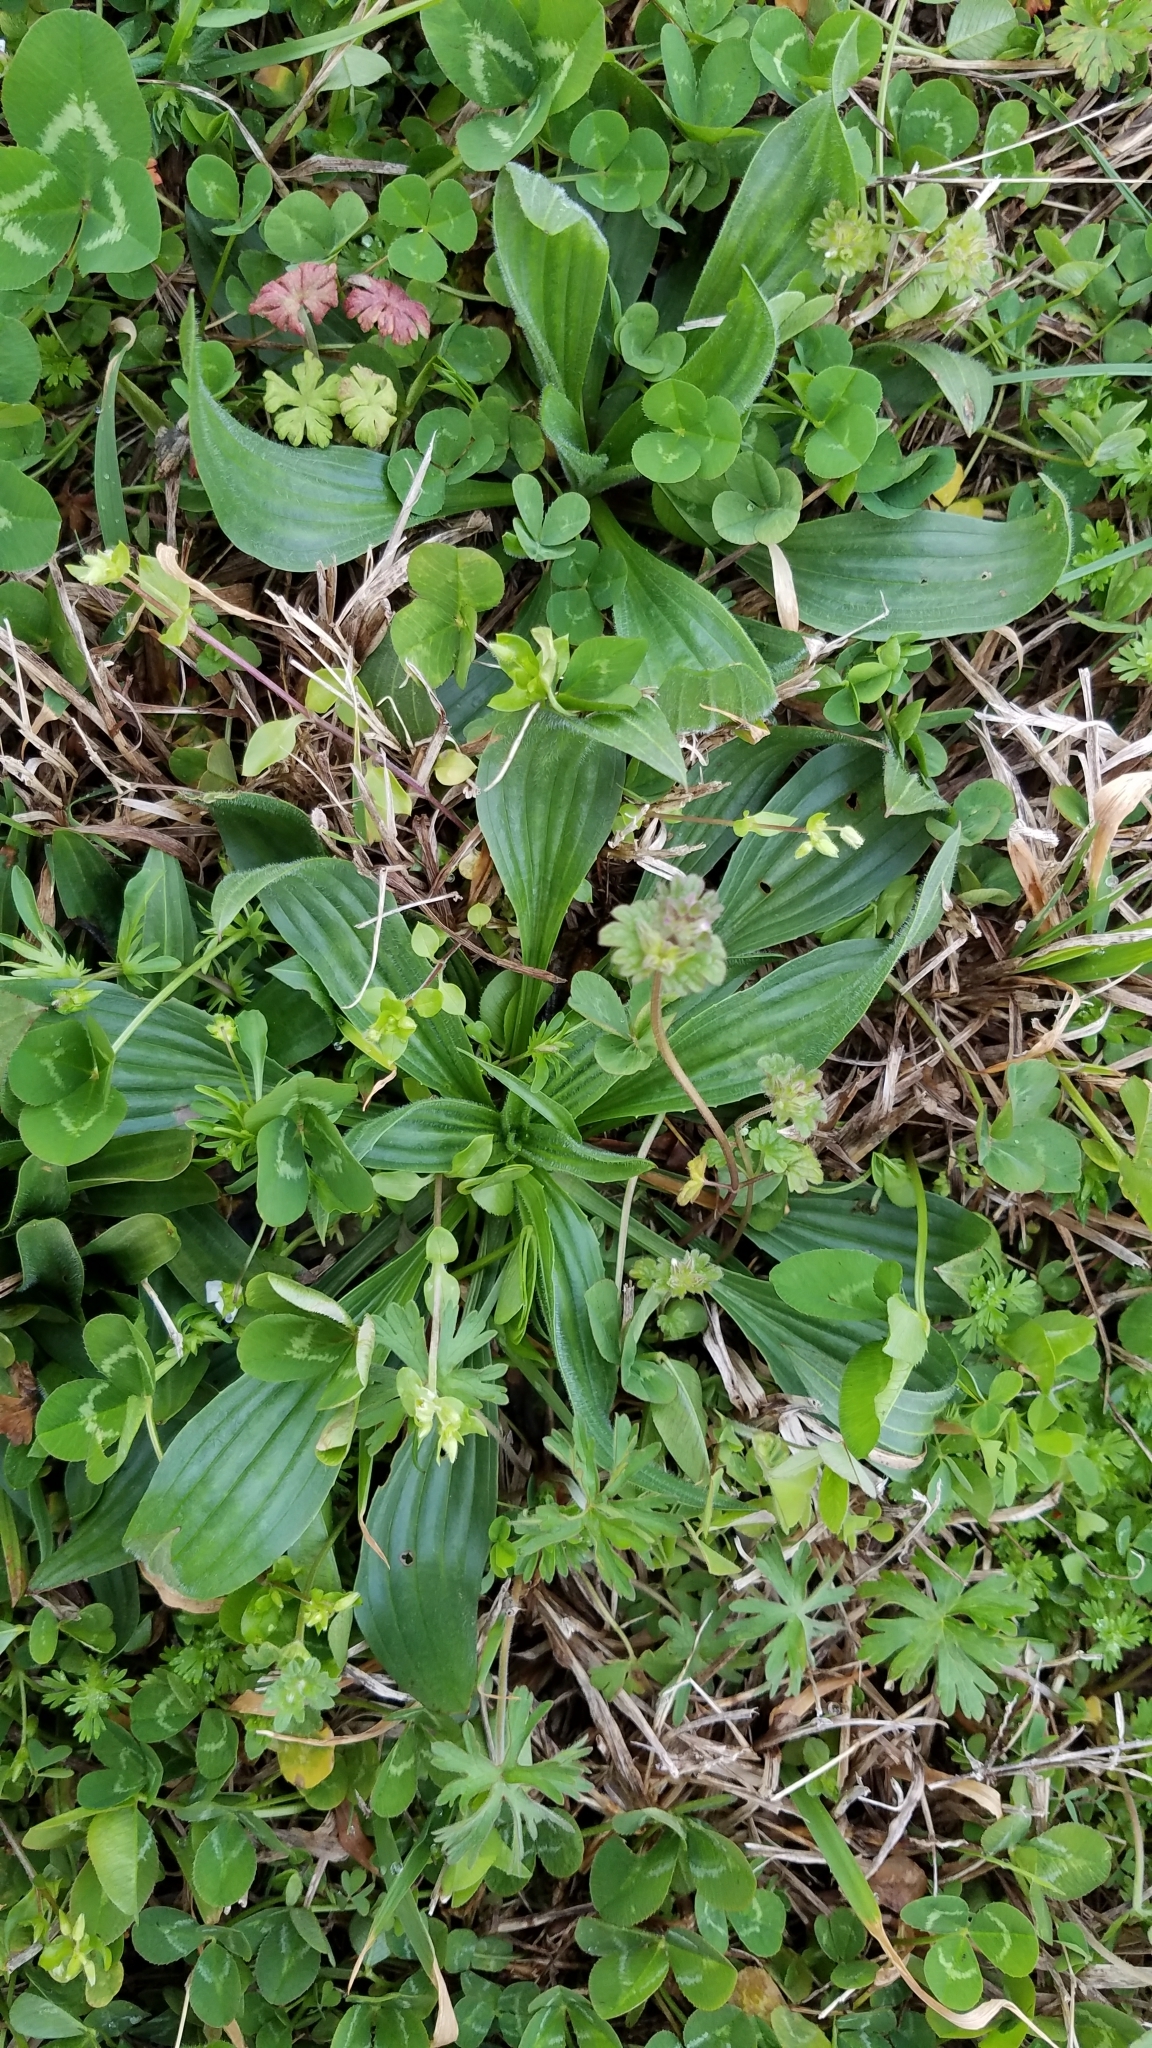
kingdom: Plantae
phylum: Tracheophyta
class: Magnoliopsida
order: Lamiales
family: Plantaginaceae
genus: Plantago
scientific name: Plantago lanceolata
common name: Ribwort plantain
